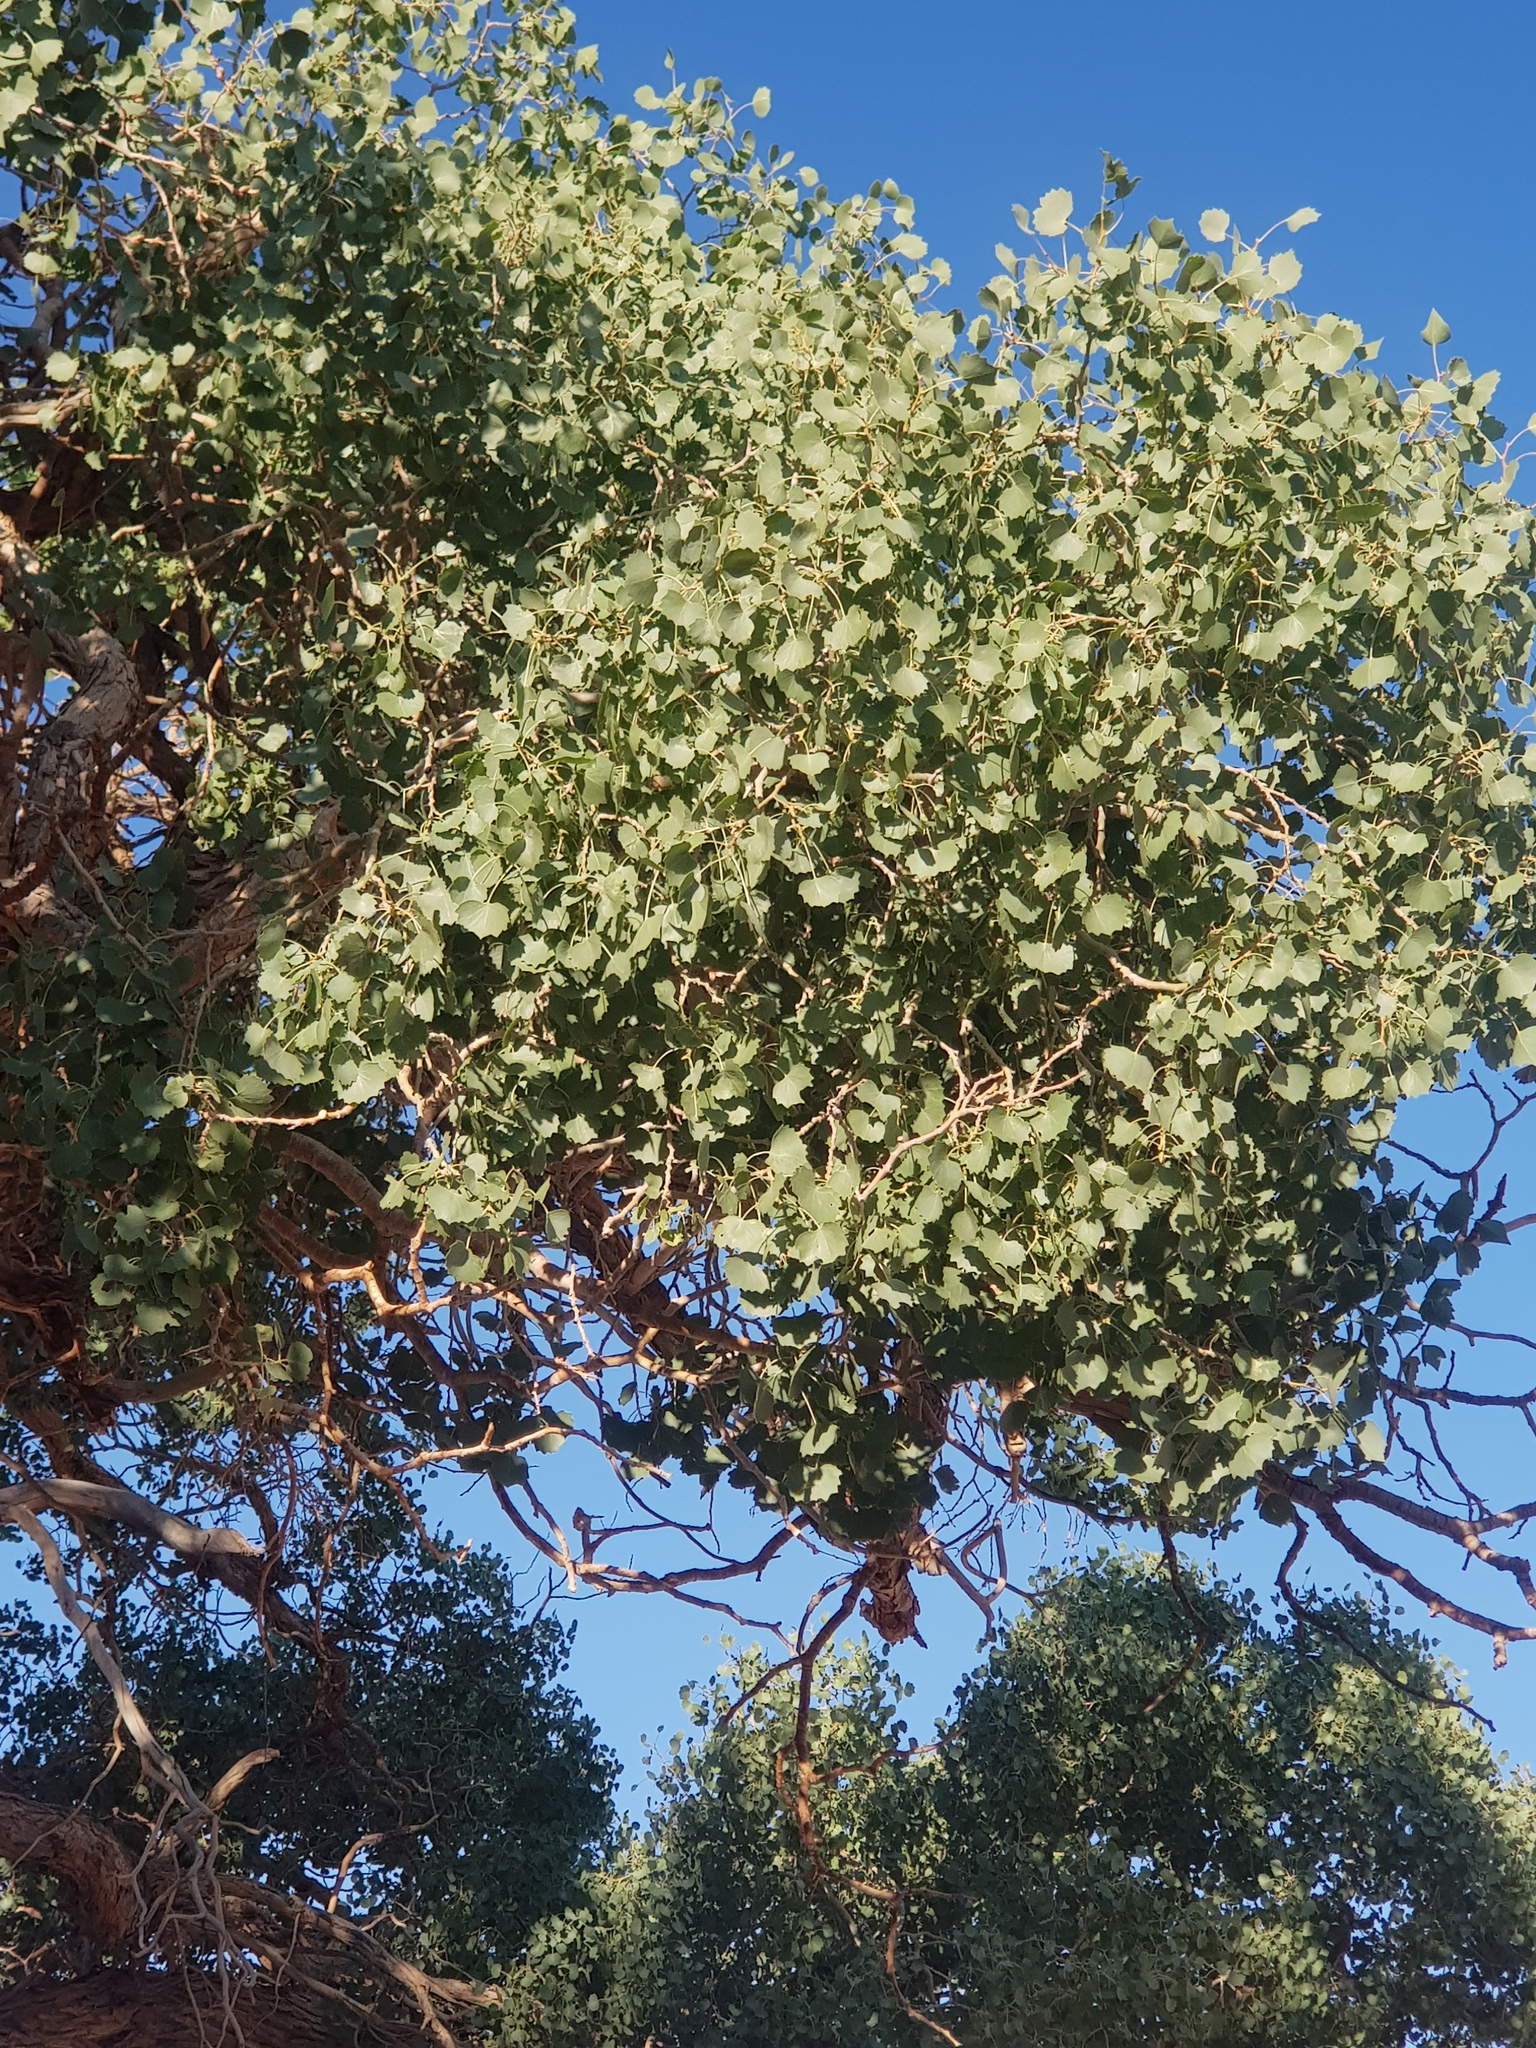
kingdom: Plantae
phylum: Tracheophyta
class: Magnoliopsida
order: Malpighiales
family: Salicaceae
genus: Populus
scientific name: Populus euphratica
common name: Euphrates poplar
